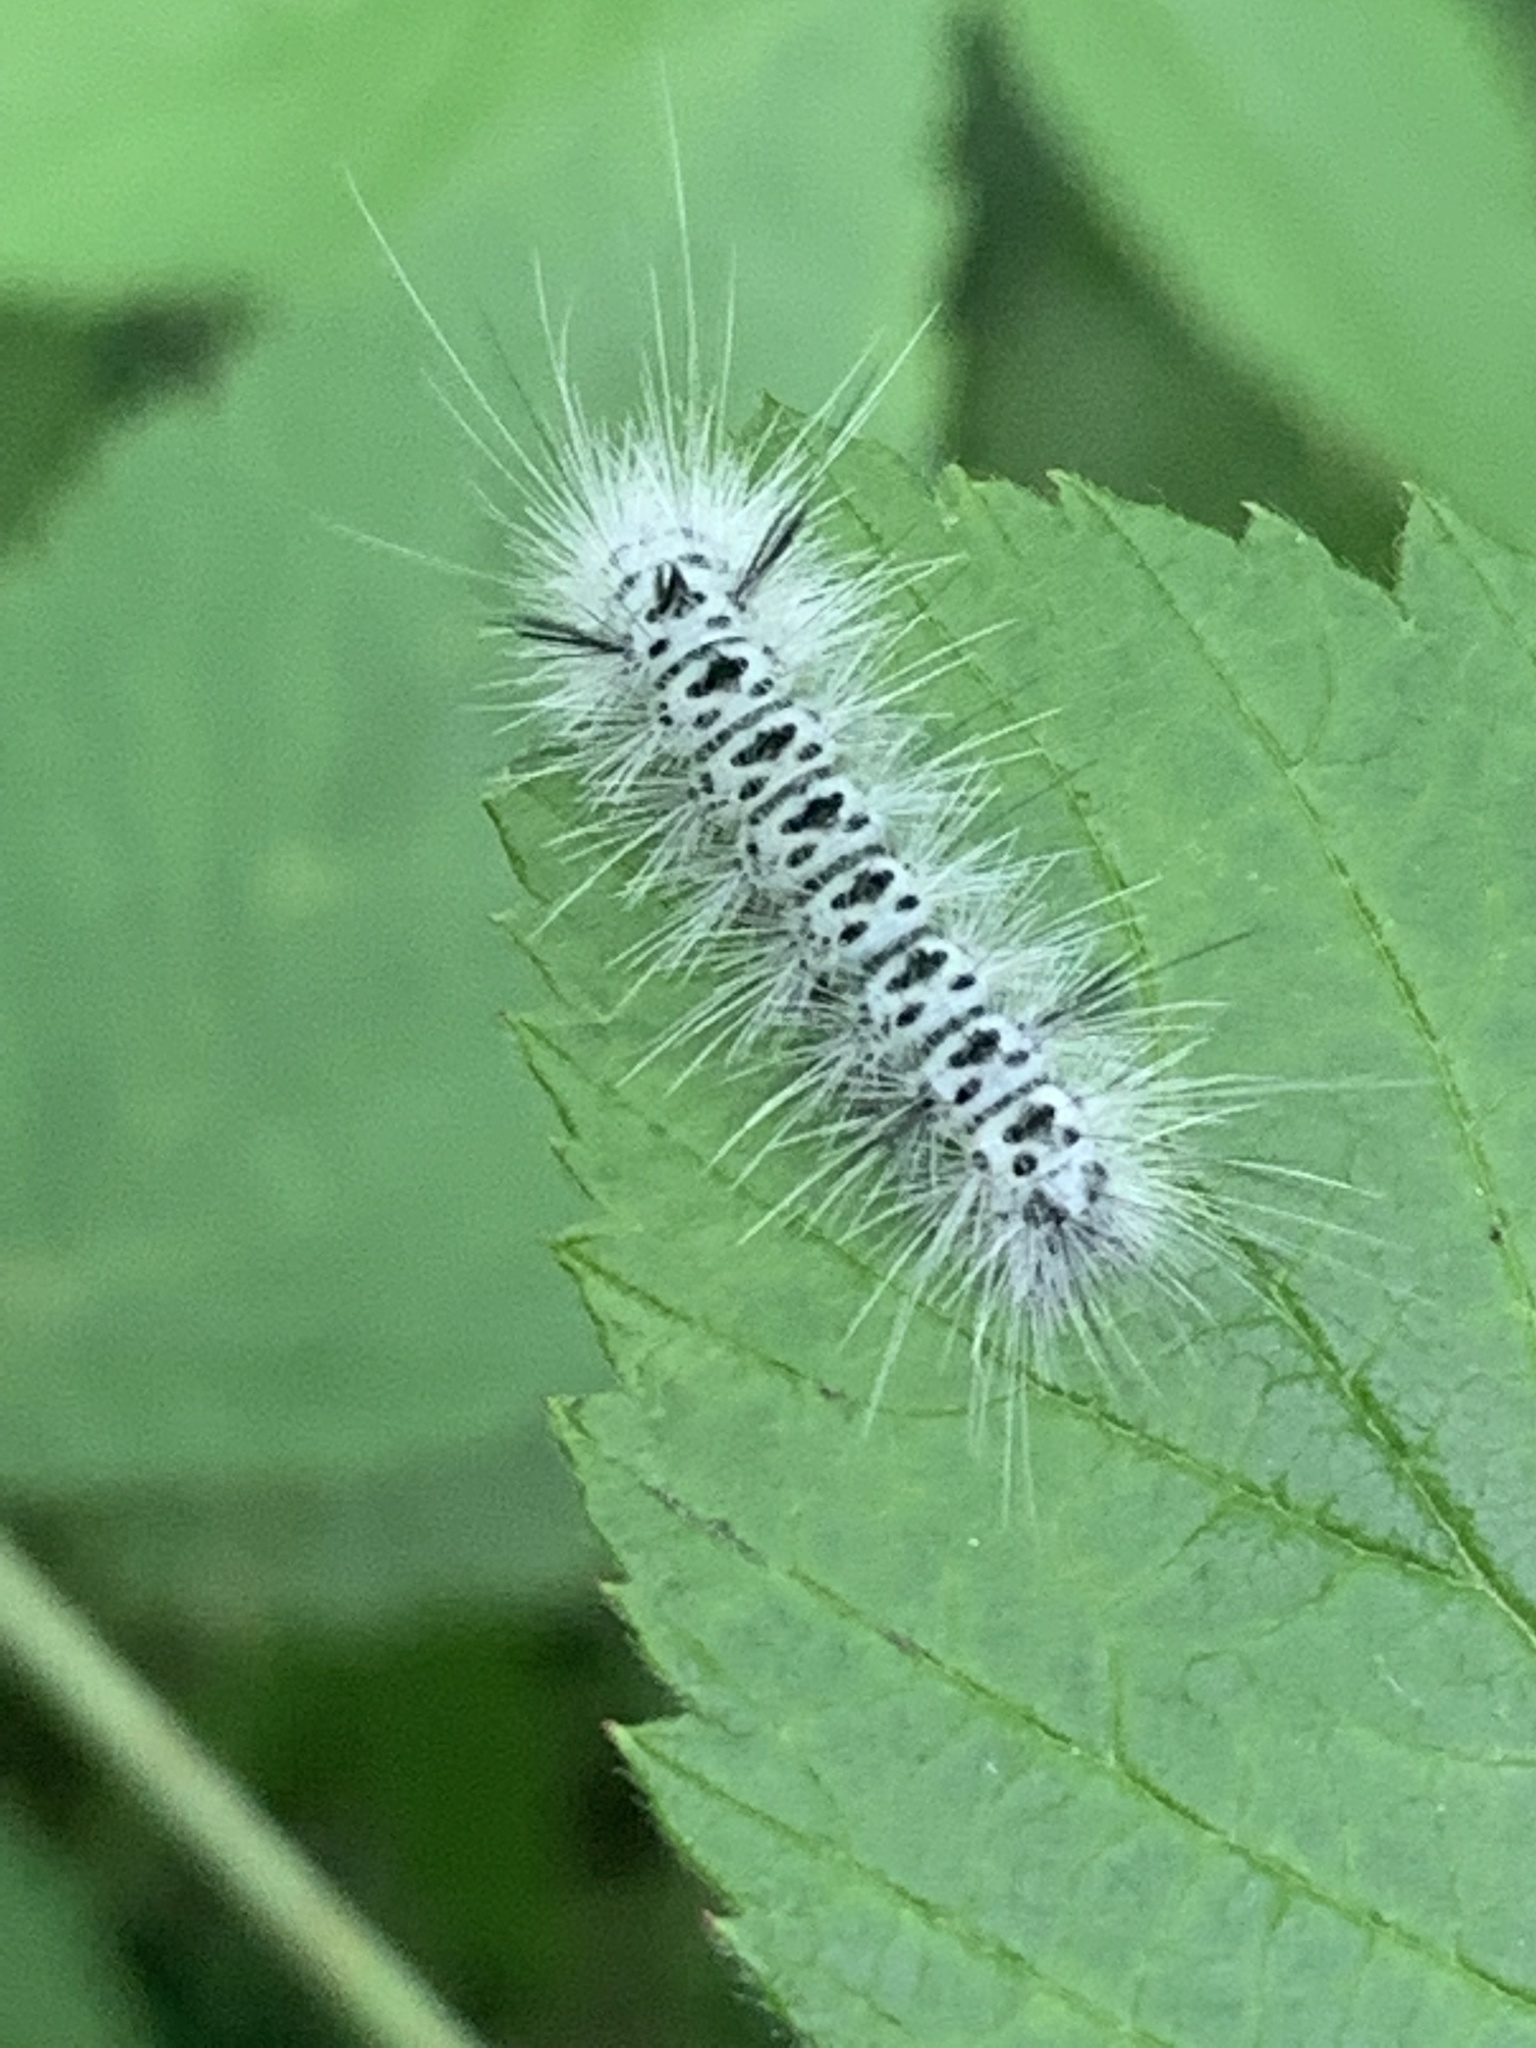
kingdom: Animalia
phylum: Arthropoda
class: Insecta
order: Lepidoptera
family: Erebidae
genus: Lophocampa
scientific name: Lophocampa caryae
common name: Hickory tussock moth
